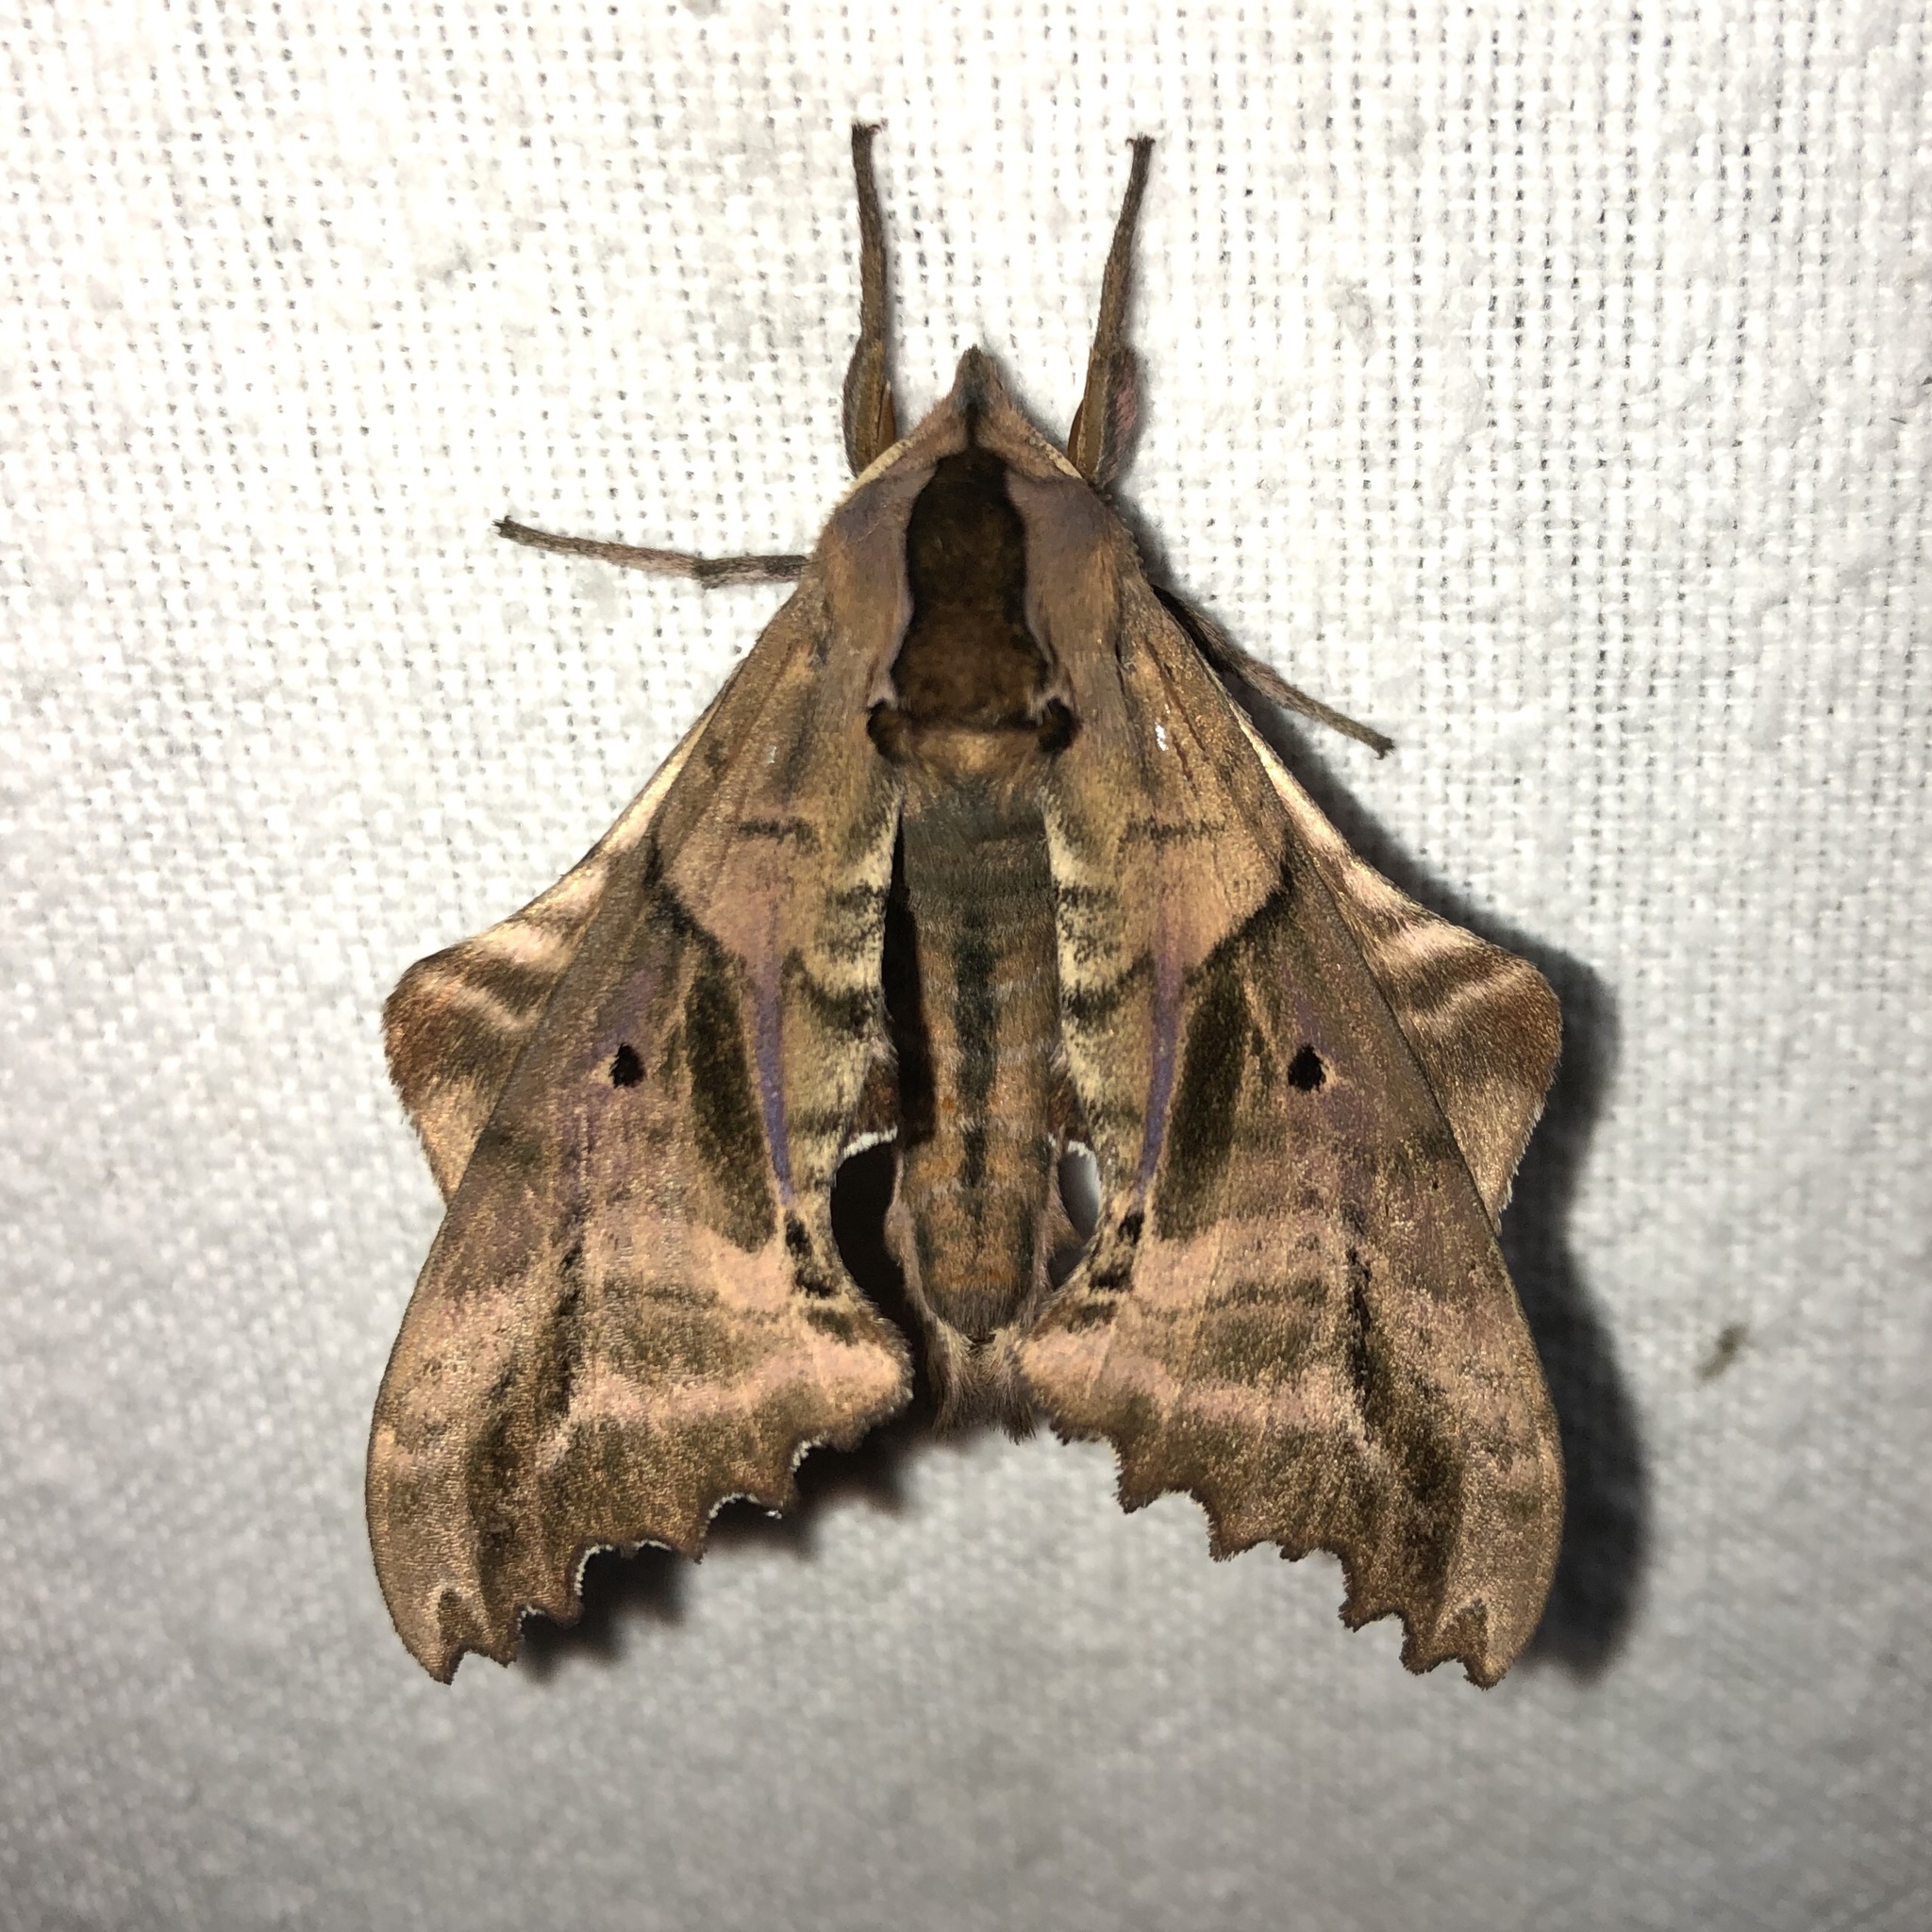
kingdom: Animalia
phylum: Arthropoda
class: Insecta
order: Lepidoptera
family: Sphingidae
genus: Paonias
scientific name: Paonias excaecata
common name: Blind-eyed sphinx
